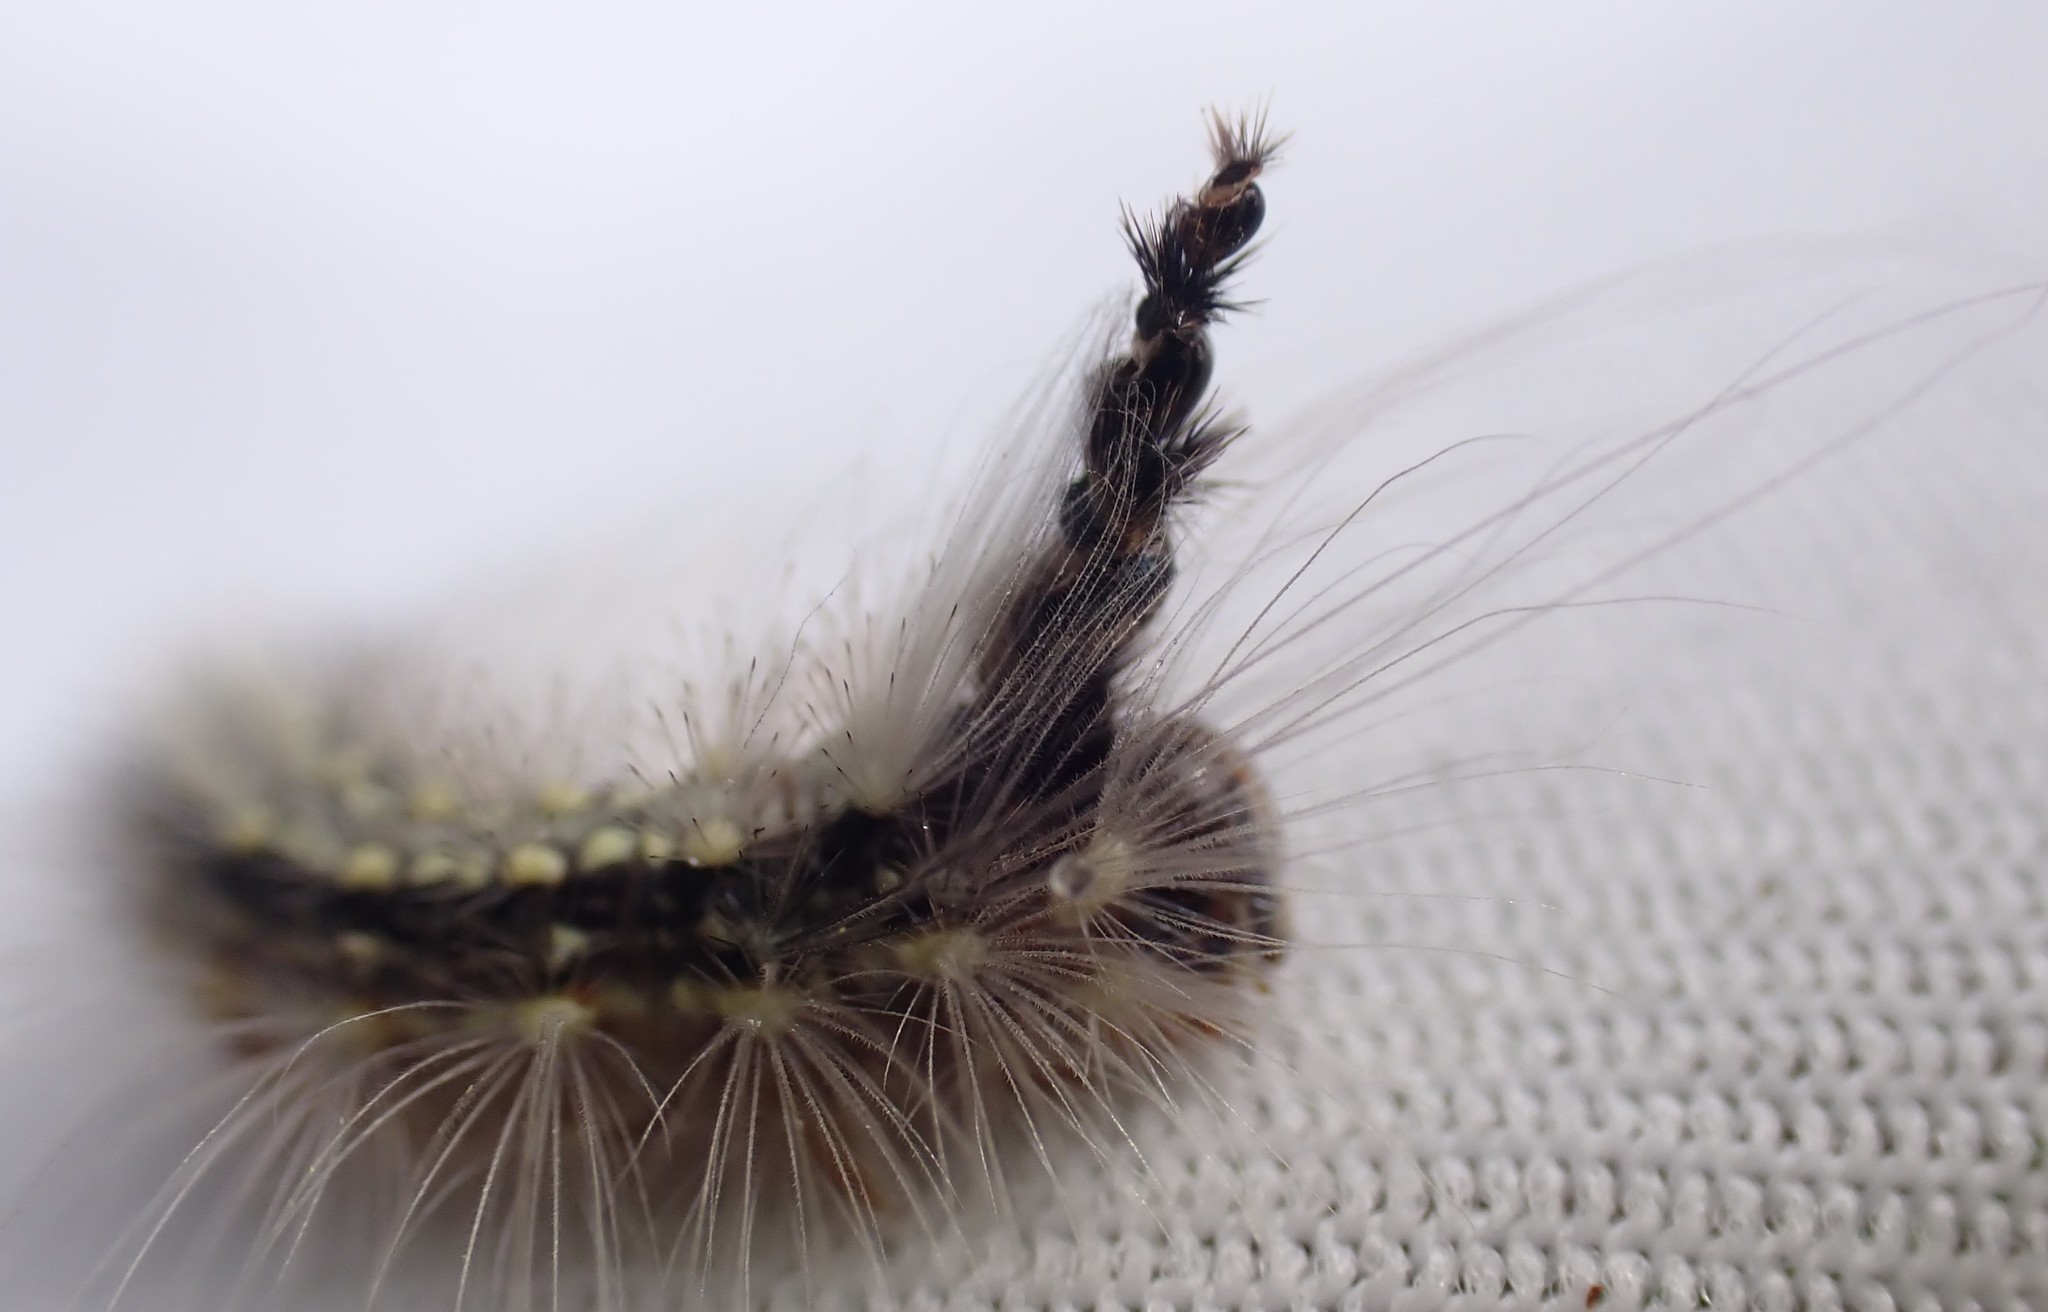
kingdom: Animalia
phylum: Arthropoda
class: Insecta
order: Lepidoptera
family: Nolidae
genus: Uraba
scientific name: Uraba lugens
